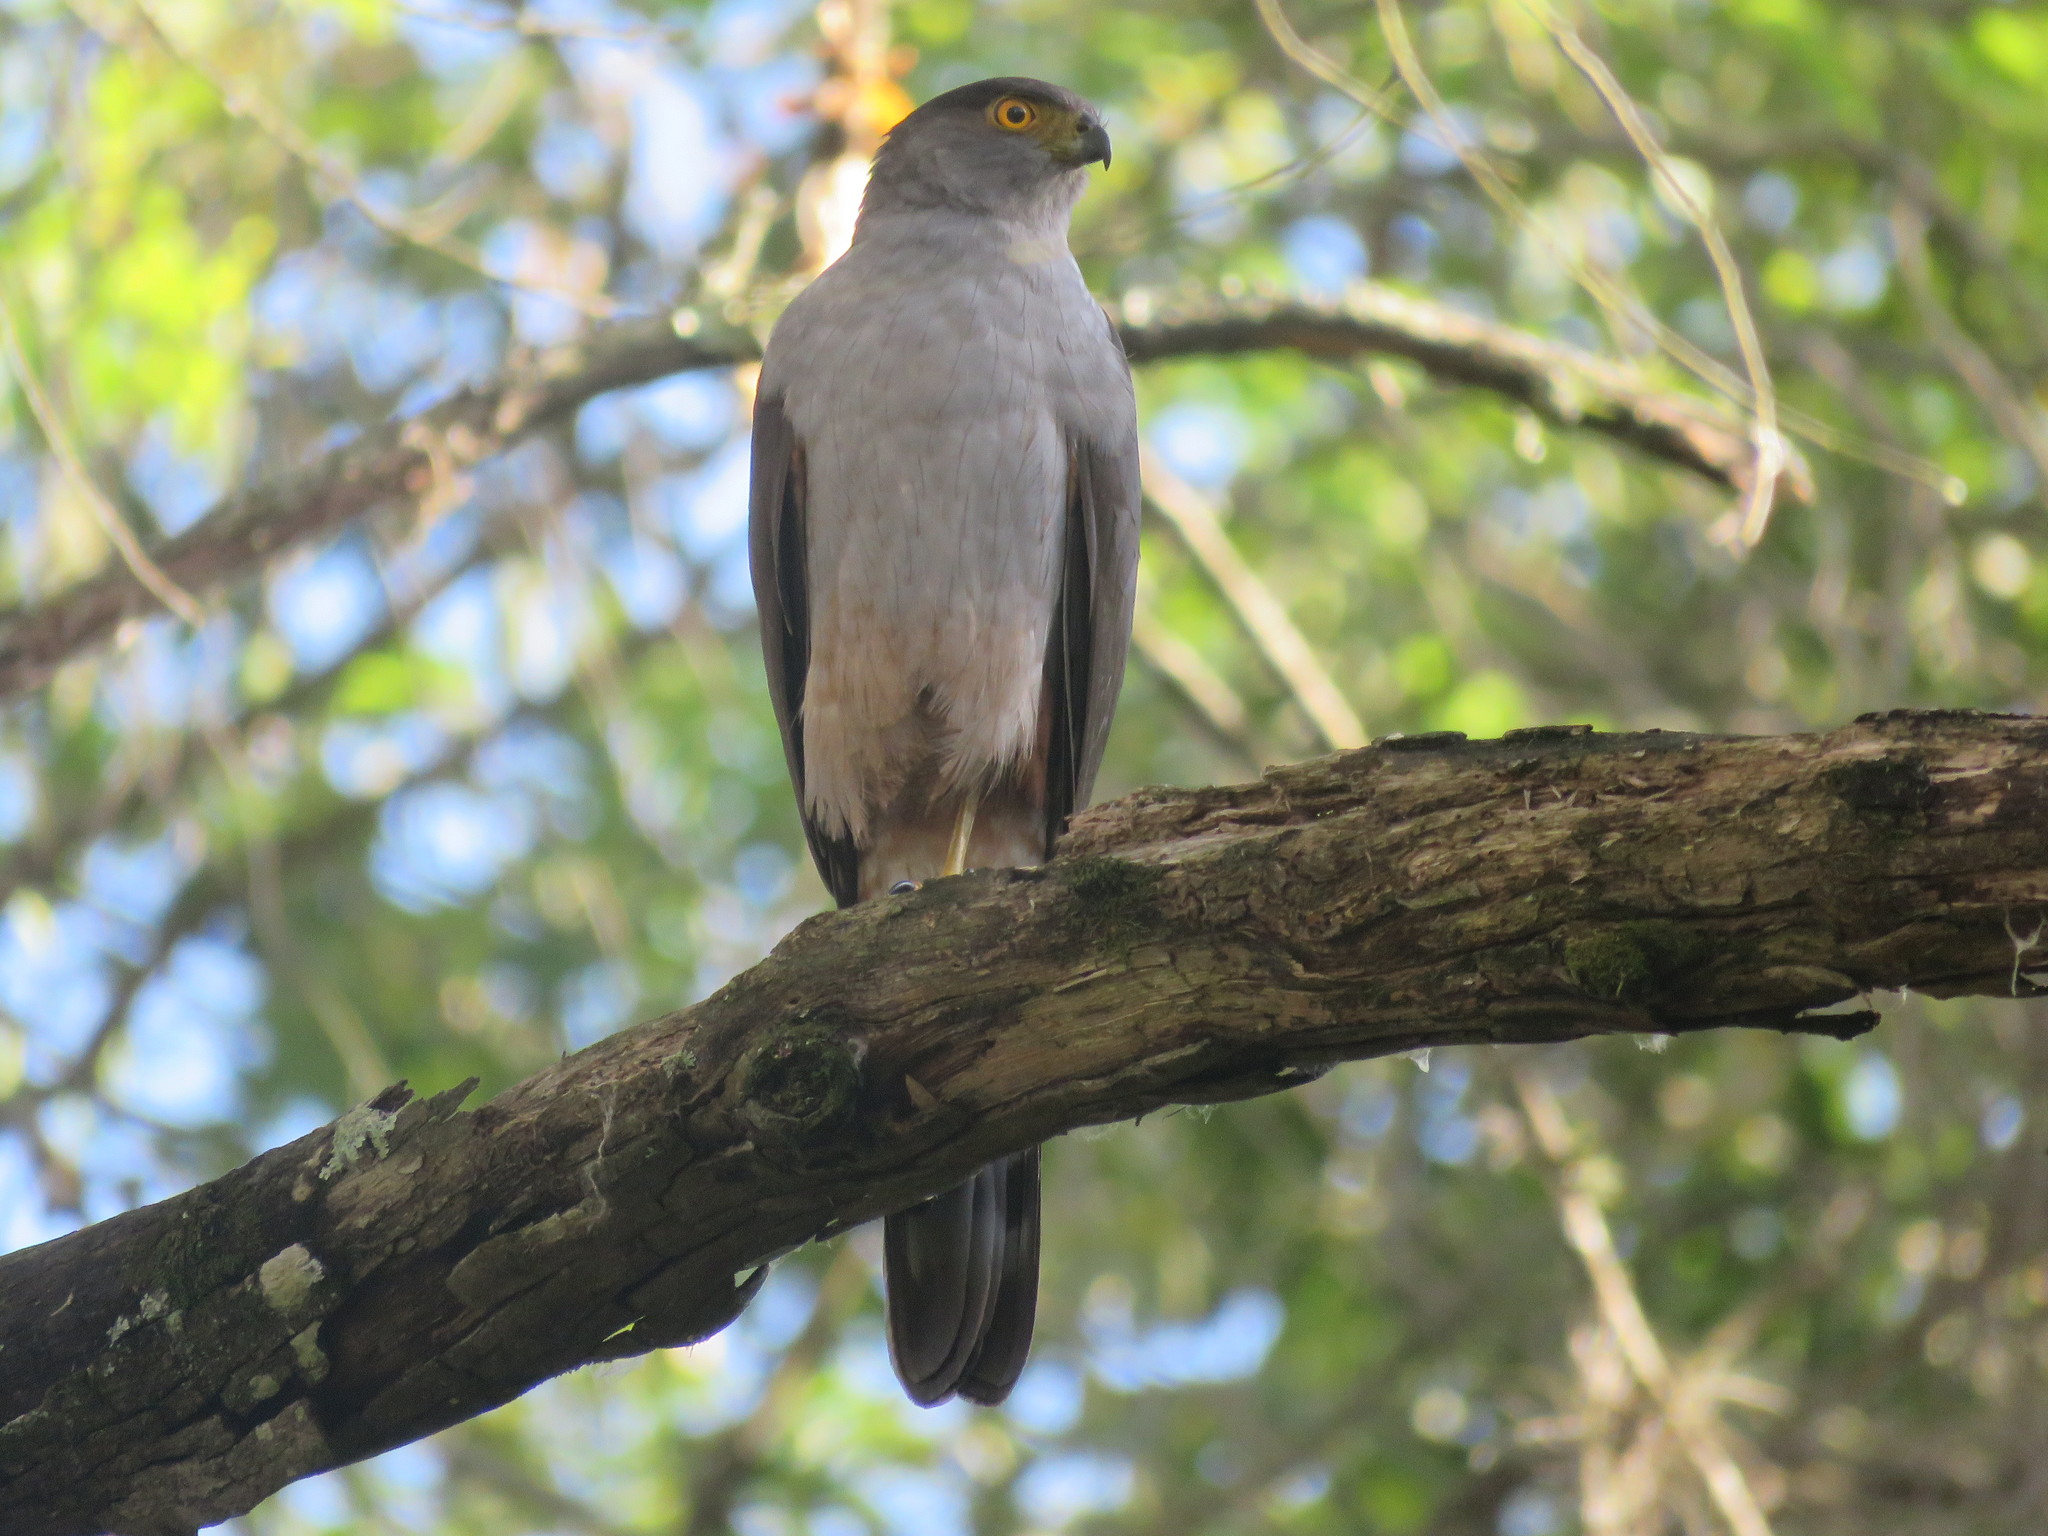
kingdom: Animalia
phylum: Chordata
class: Aves
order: Accipitriformes
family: Accipitridae
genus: Accipiter
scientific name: Accipiter bicolor
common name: Bicolored hawk
